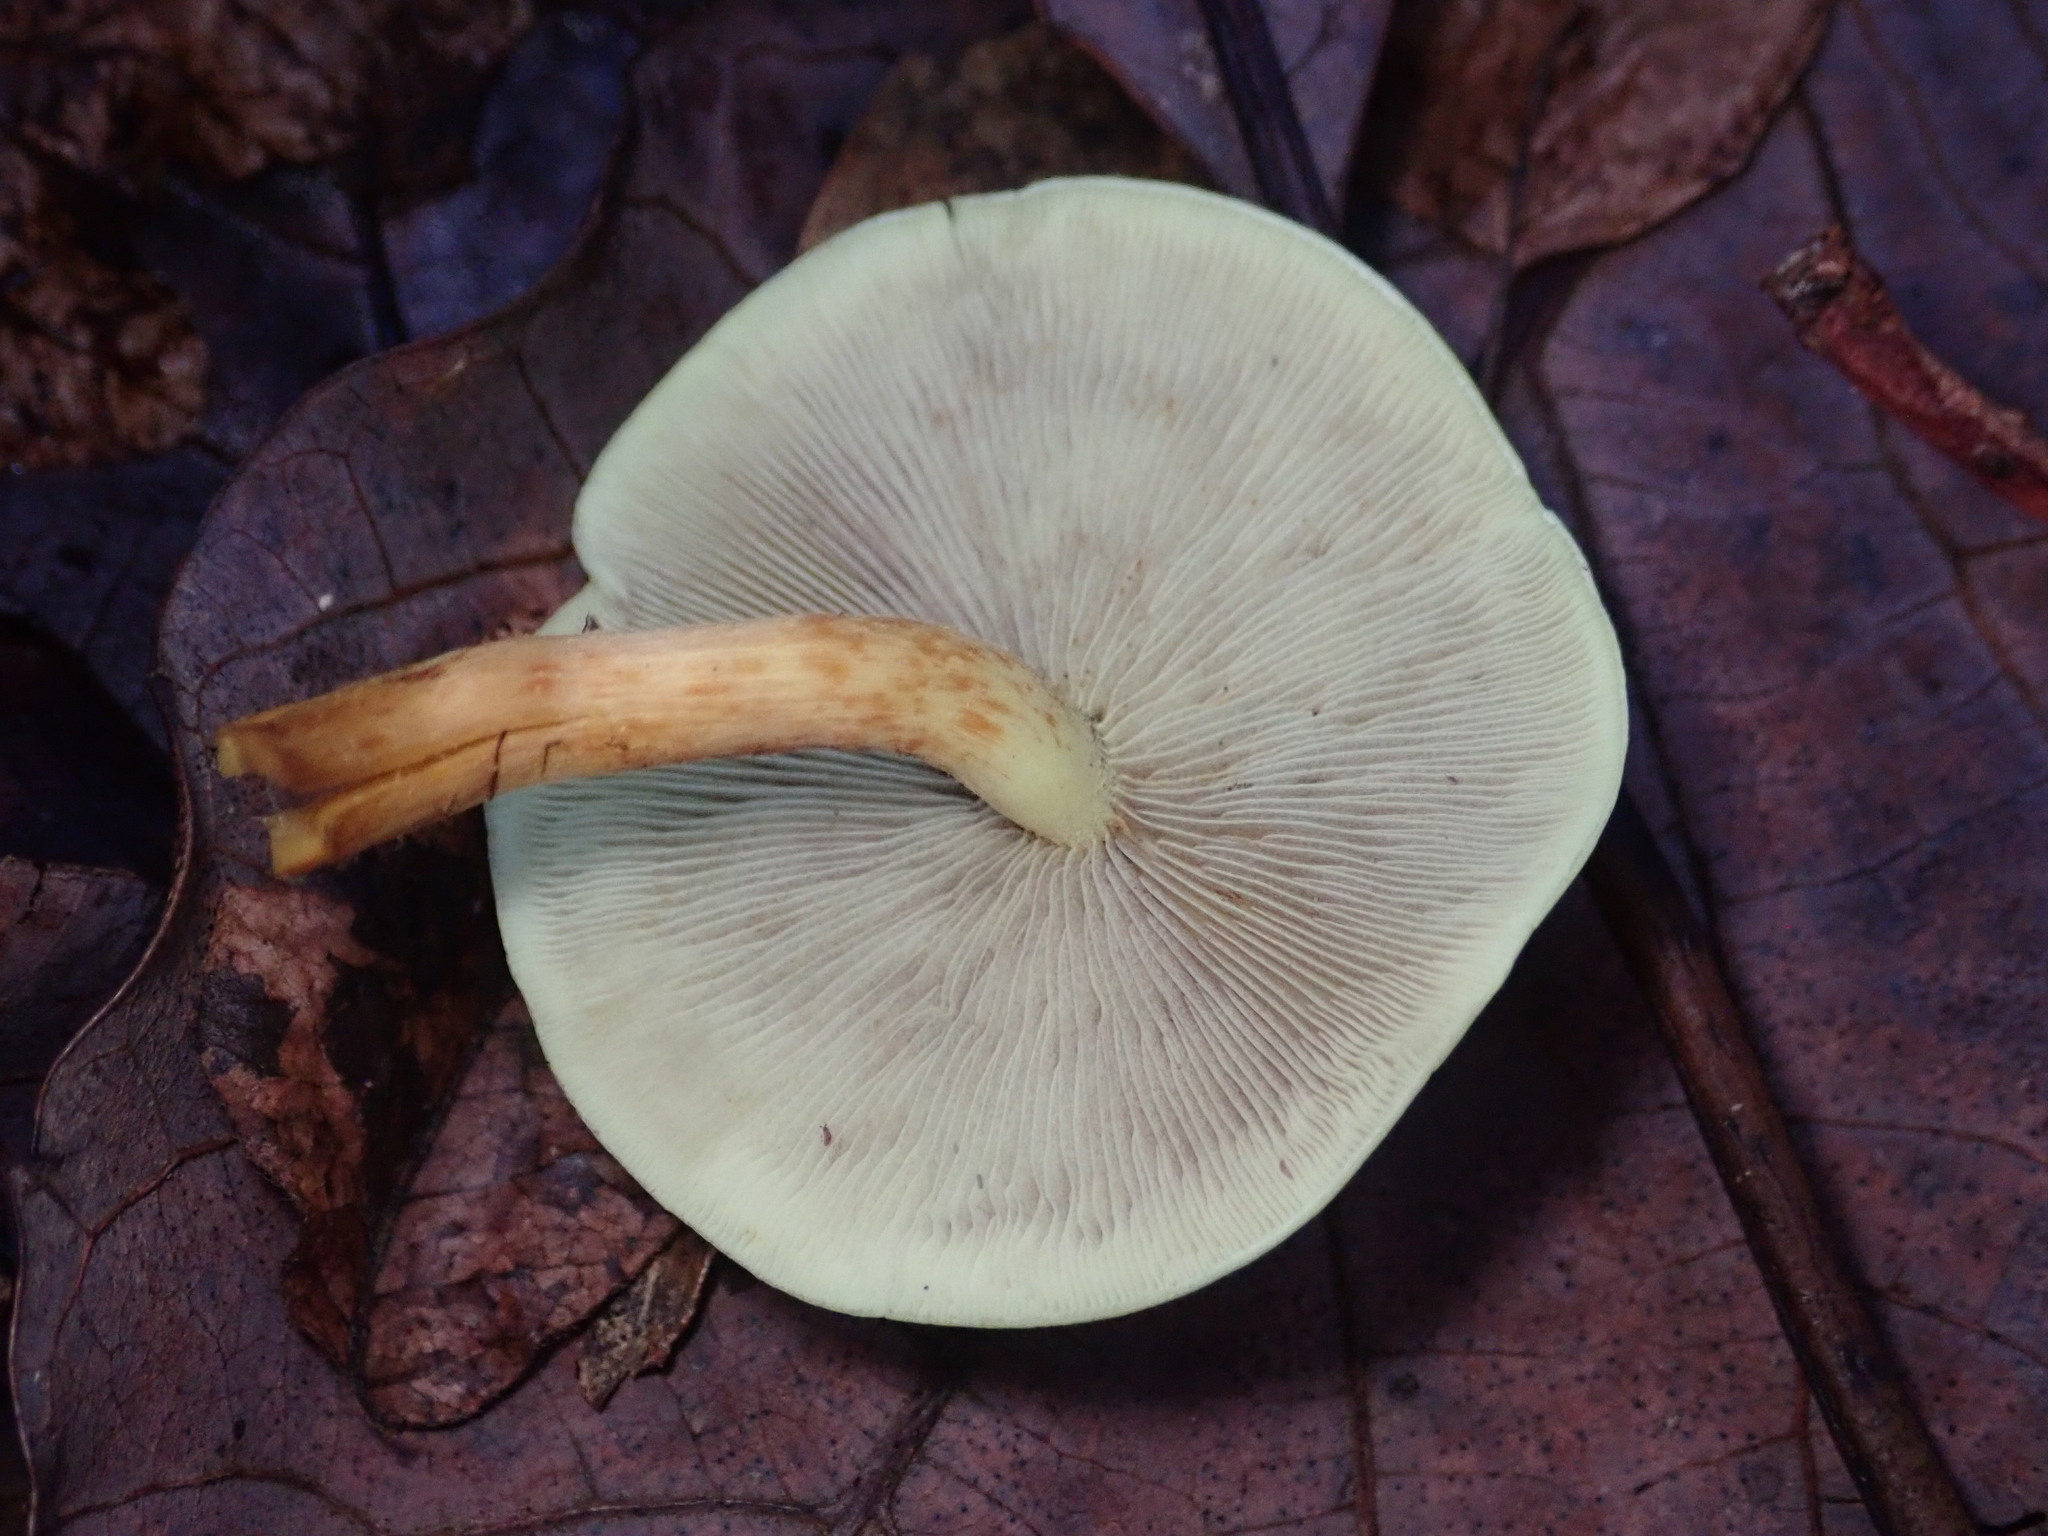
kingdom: Fungi
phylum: Basidiomycota
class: Agaricomycetes
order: Agaricales
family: Strophariaceae
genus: Hypholoma
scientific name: Hypholoma fasciculare
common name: Sulphur tuft
